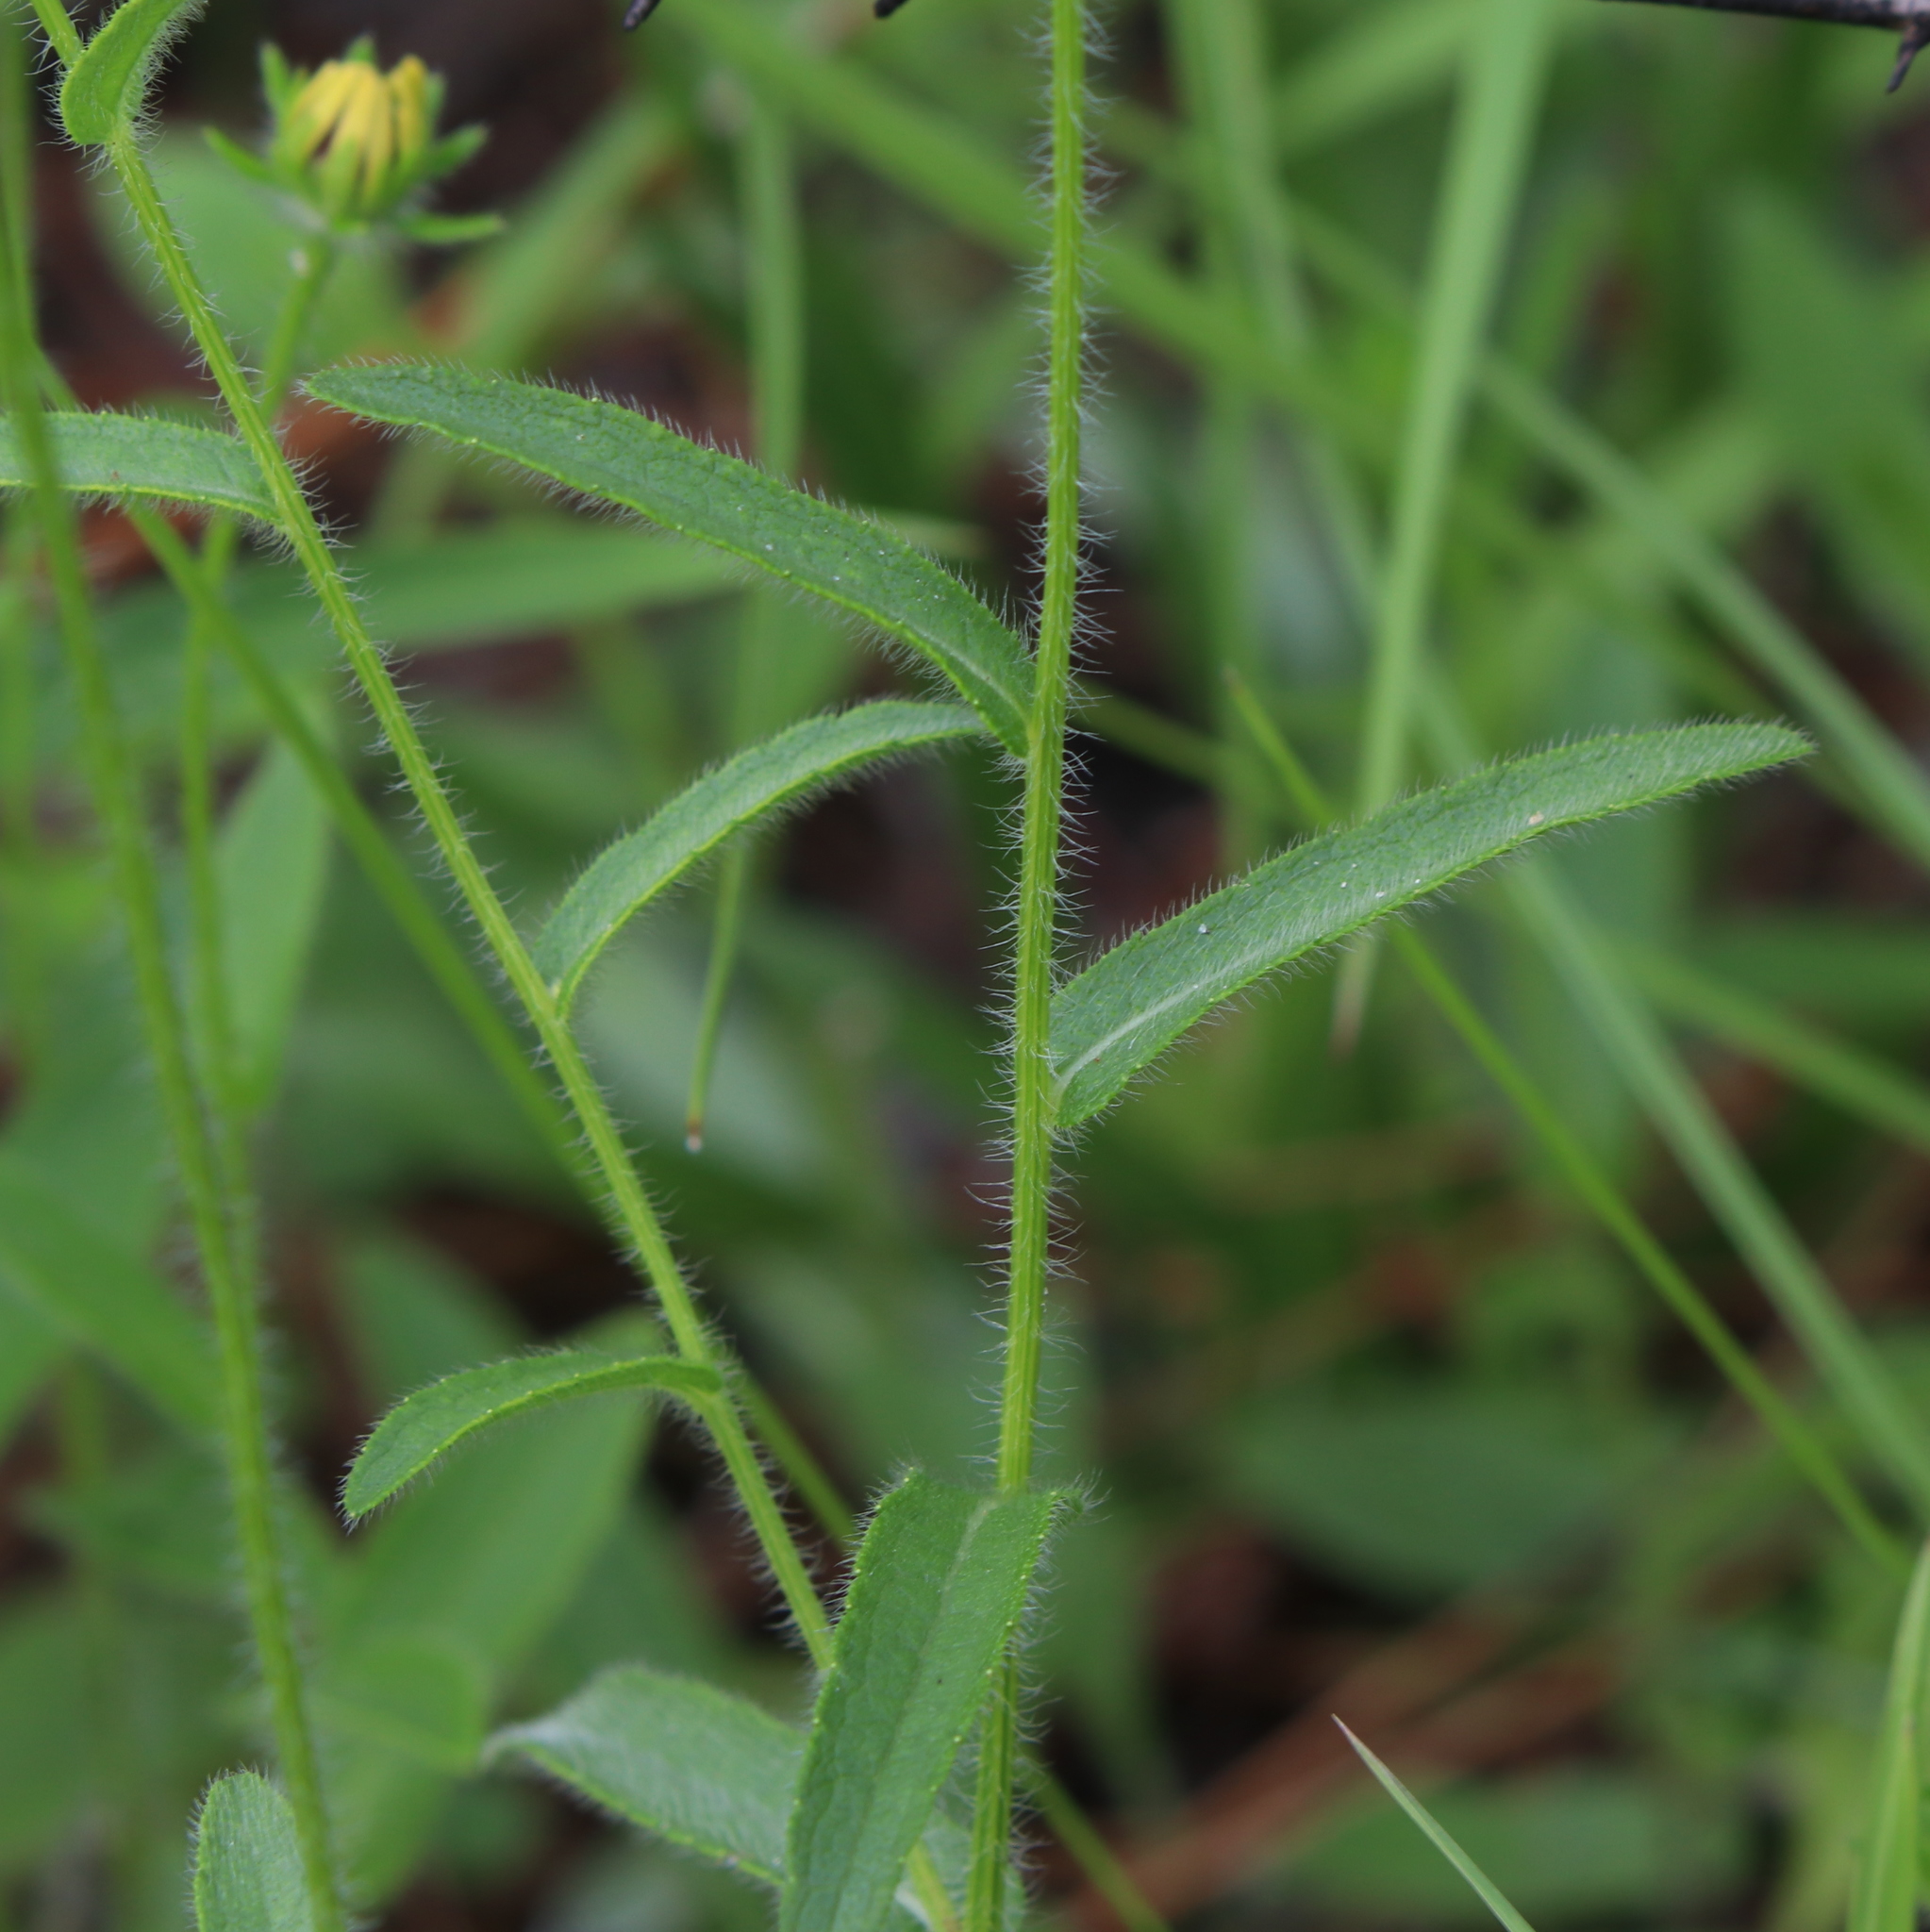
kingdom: Plantae
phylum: Tracheophyta
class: Magnoliopsida
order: Asterales
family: Asteraceae
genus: Rudbeckia
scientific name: Rudbeckia hirta
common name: Black-eyed-susan
